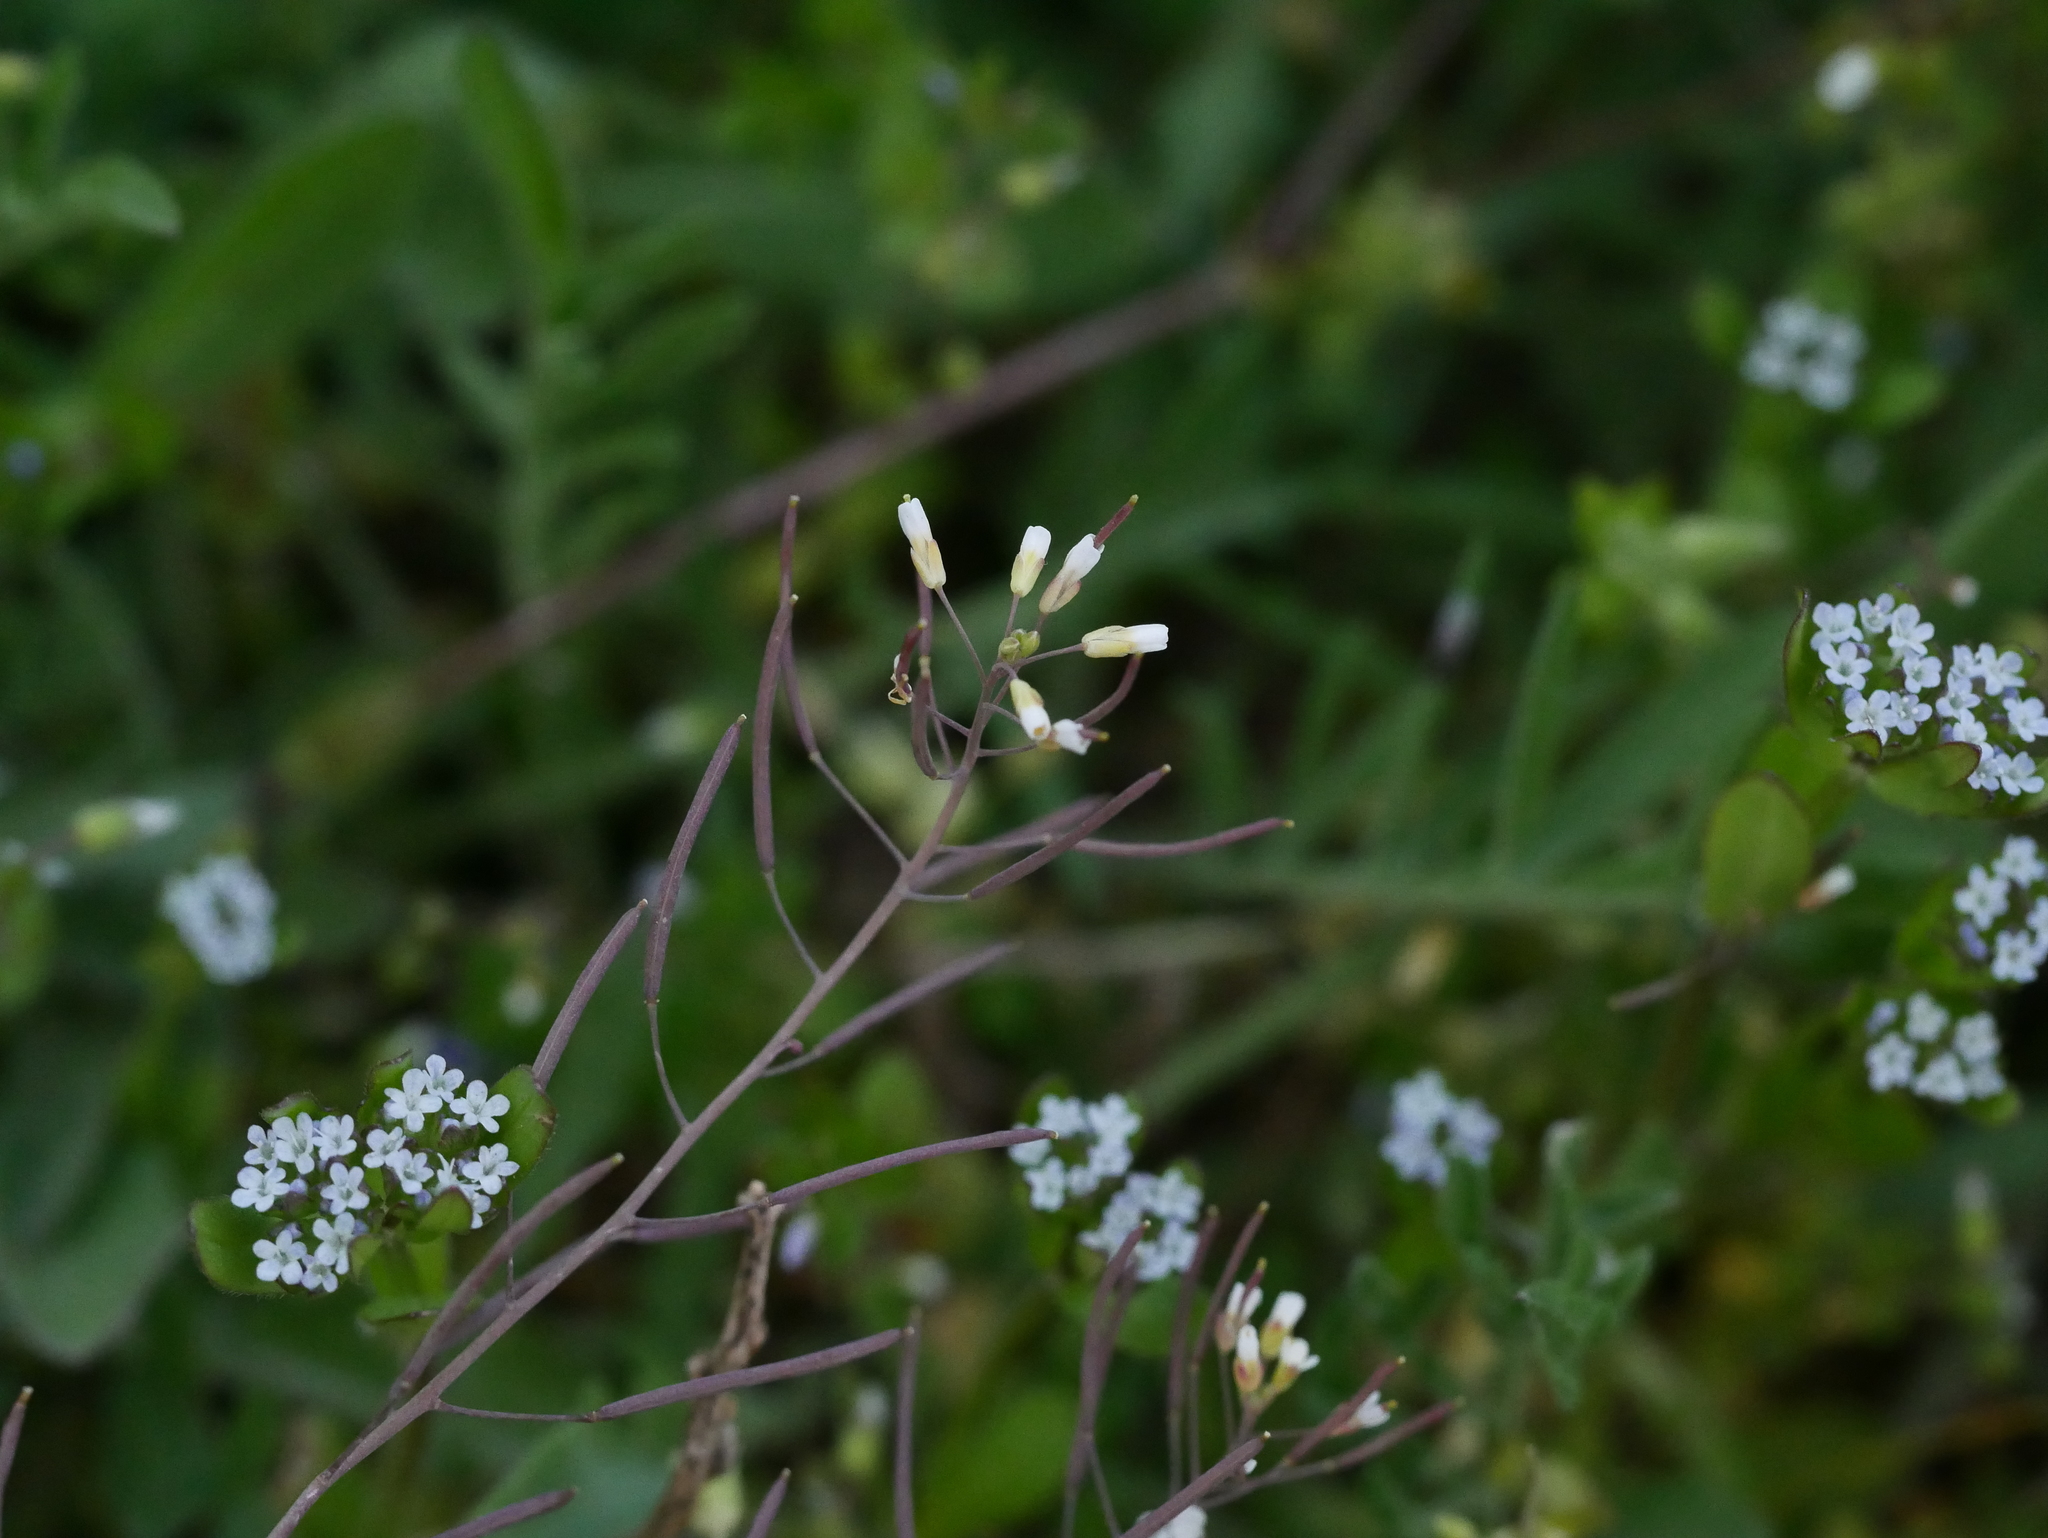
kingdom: Plantae
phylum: Tracheophyta
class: Magnoliopsida
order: Brassicales
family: Brassicaceae
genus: Arabidopsis
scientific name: Arabidopsis thaliana
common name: Thale cress
